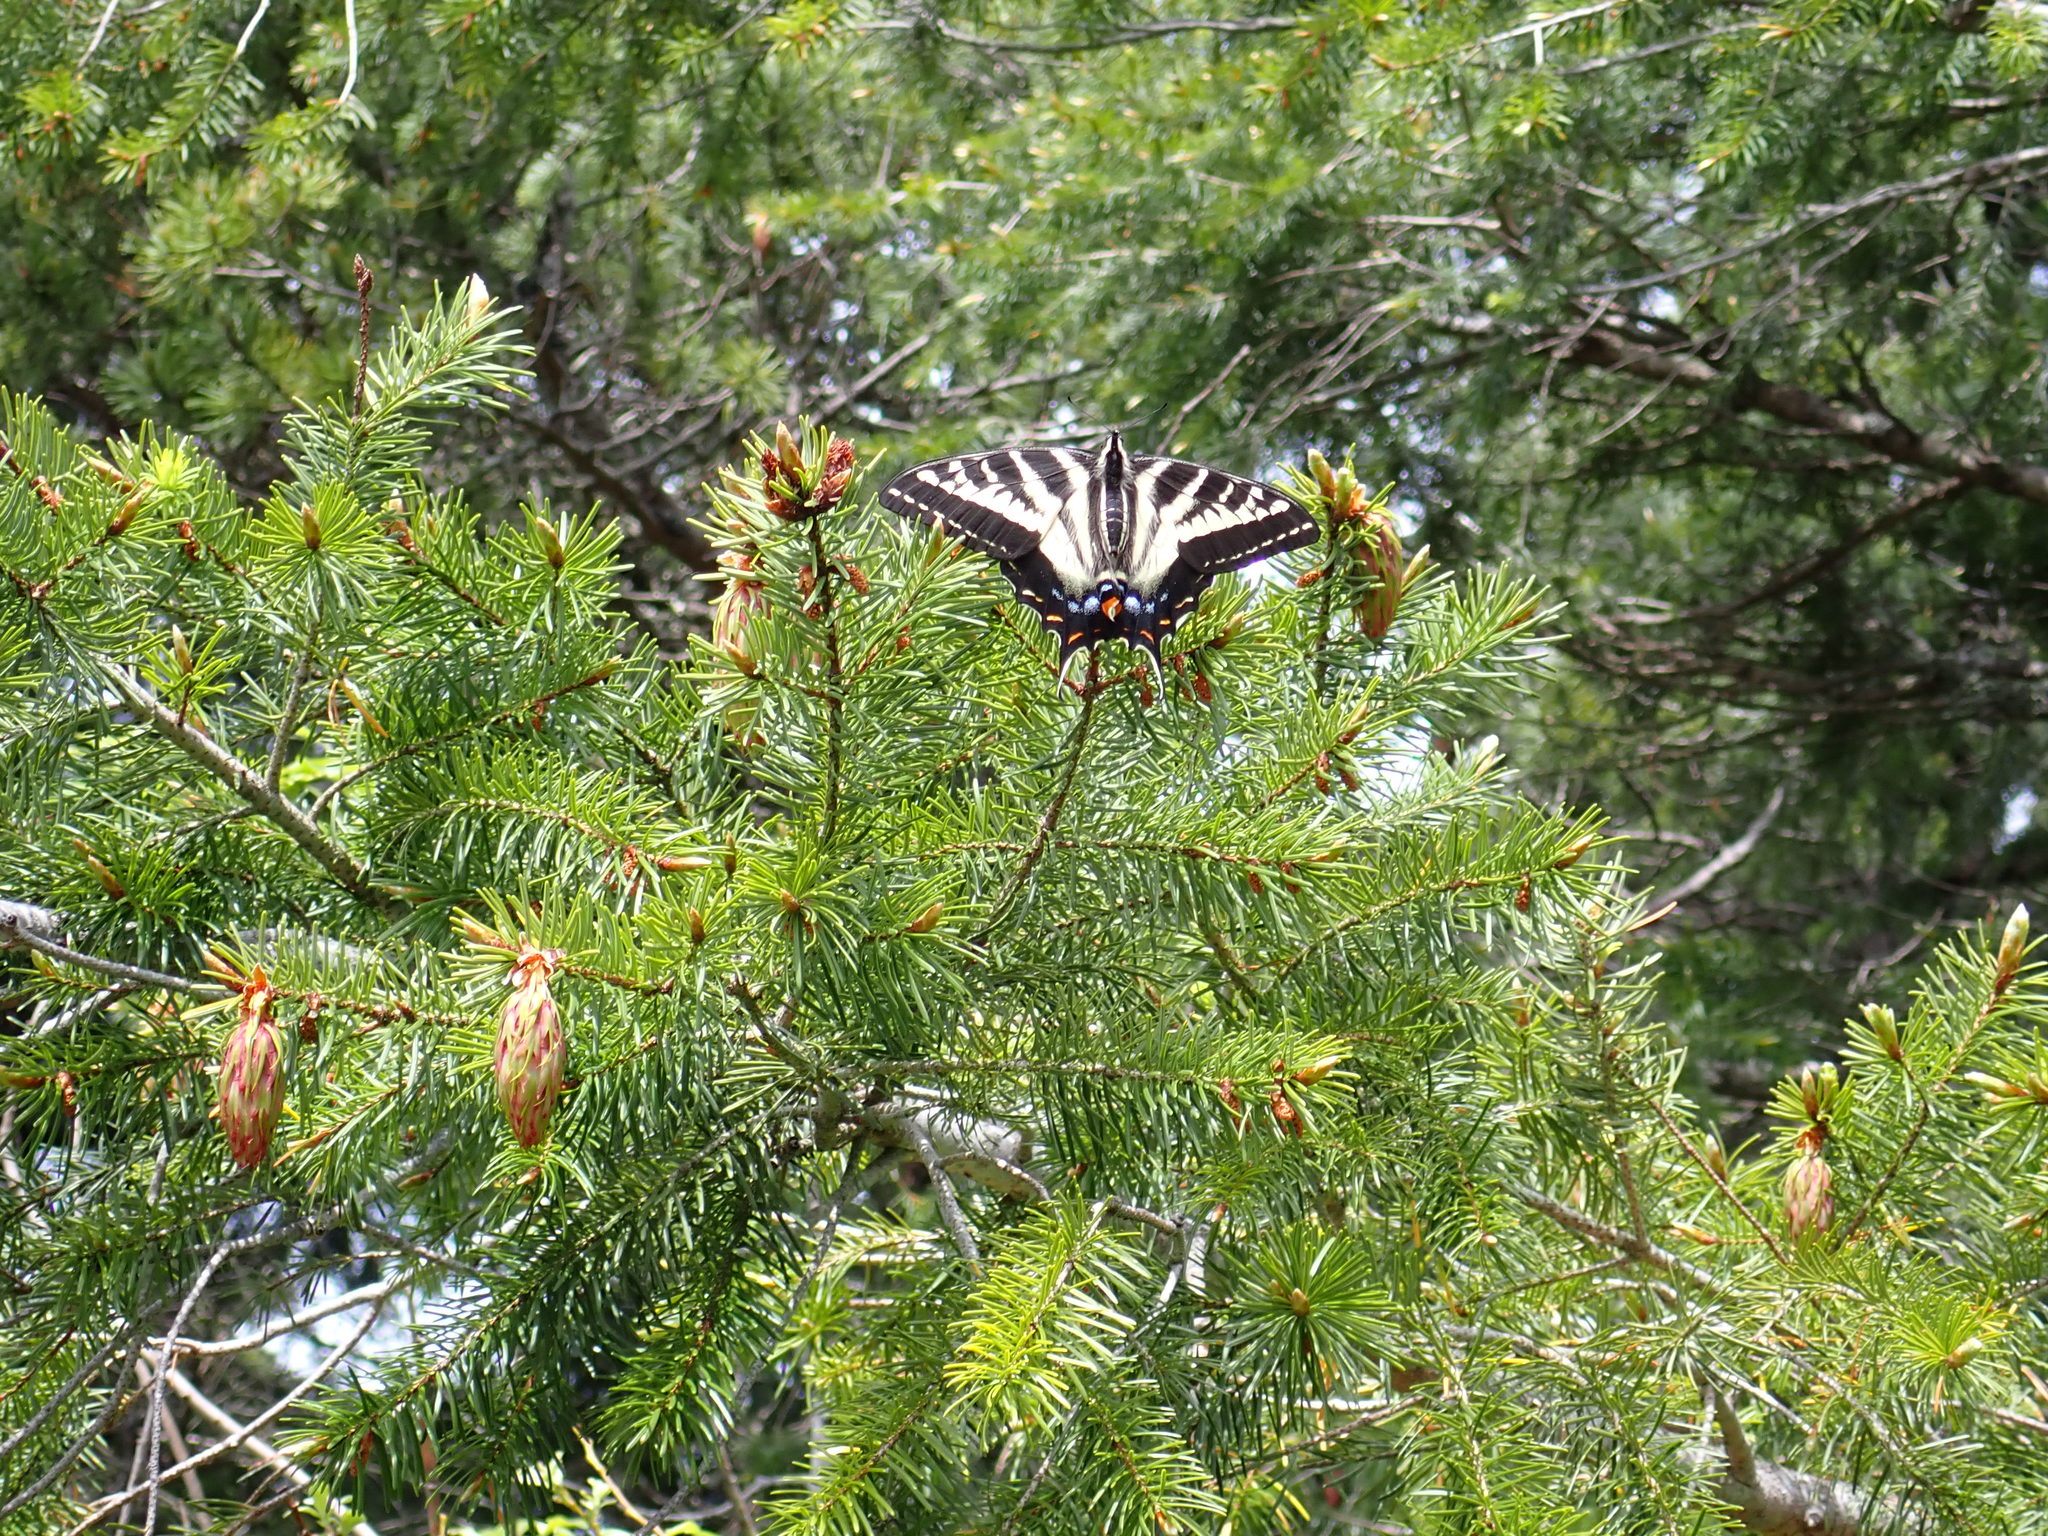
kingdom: Animalia
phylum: Arthropoda
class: Insecta
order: Lepidoptera
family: Papilionidae
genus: Papilio
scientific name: Papilio eurymedon
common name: Pale tiger swallowtail
